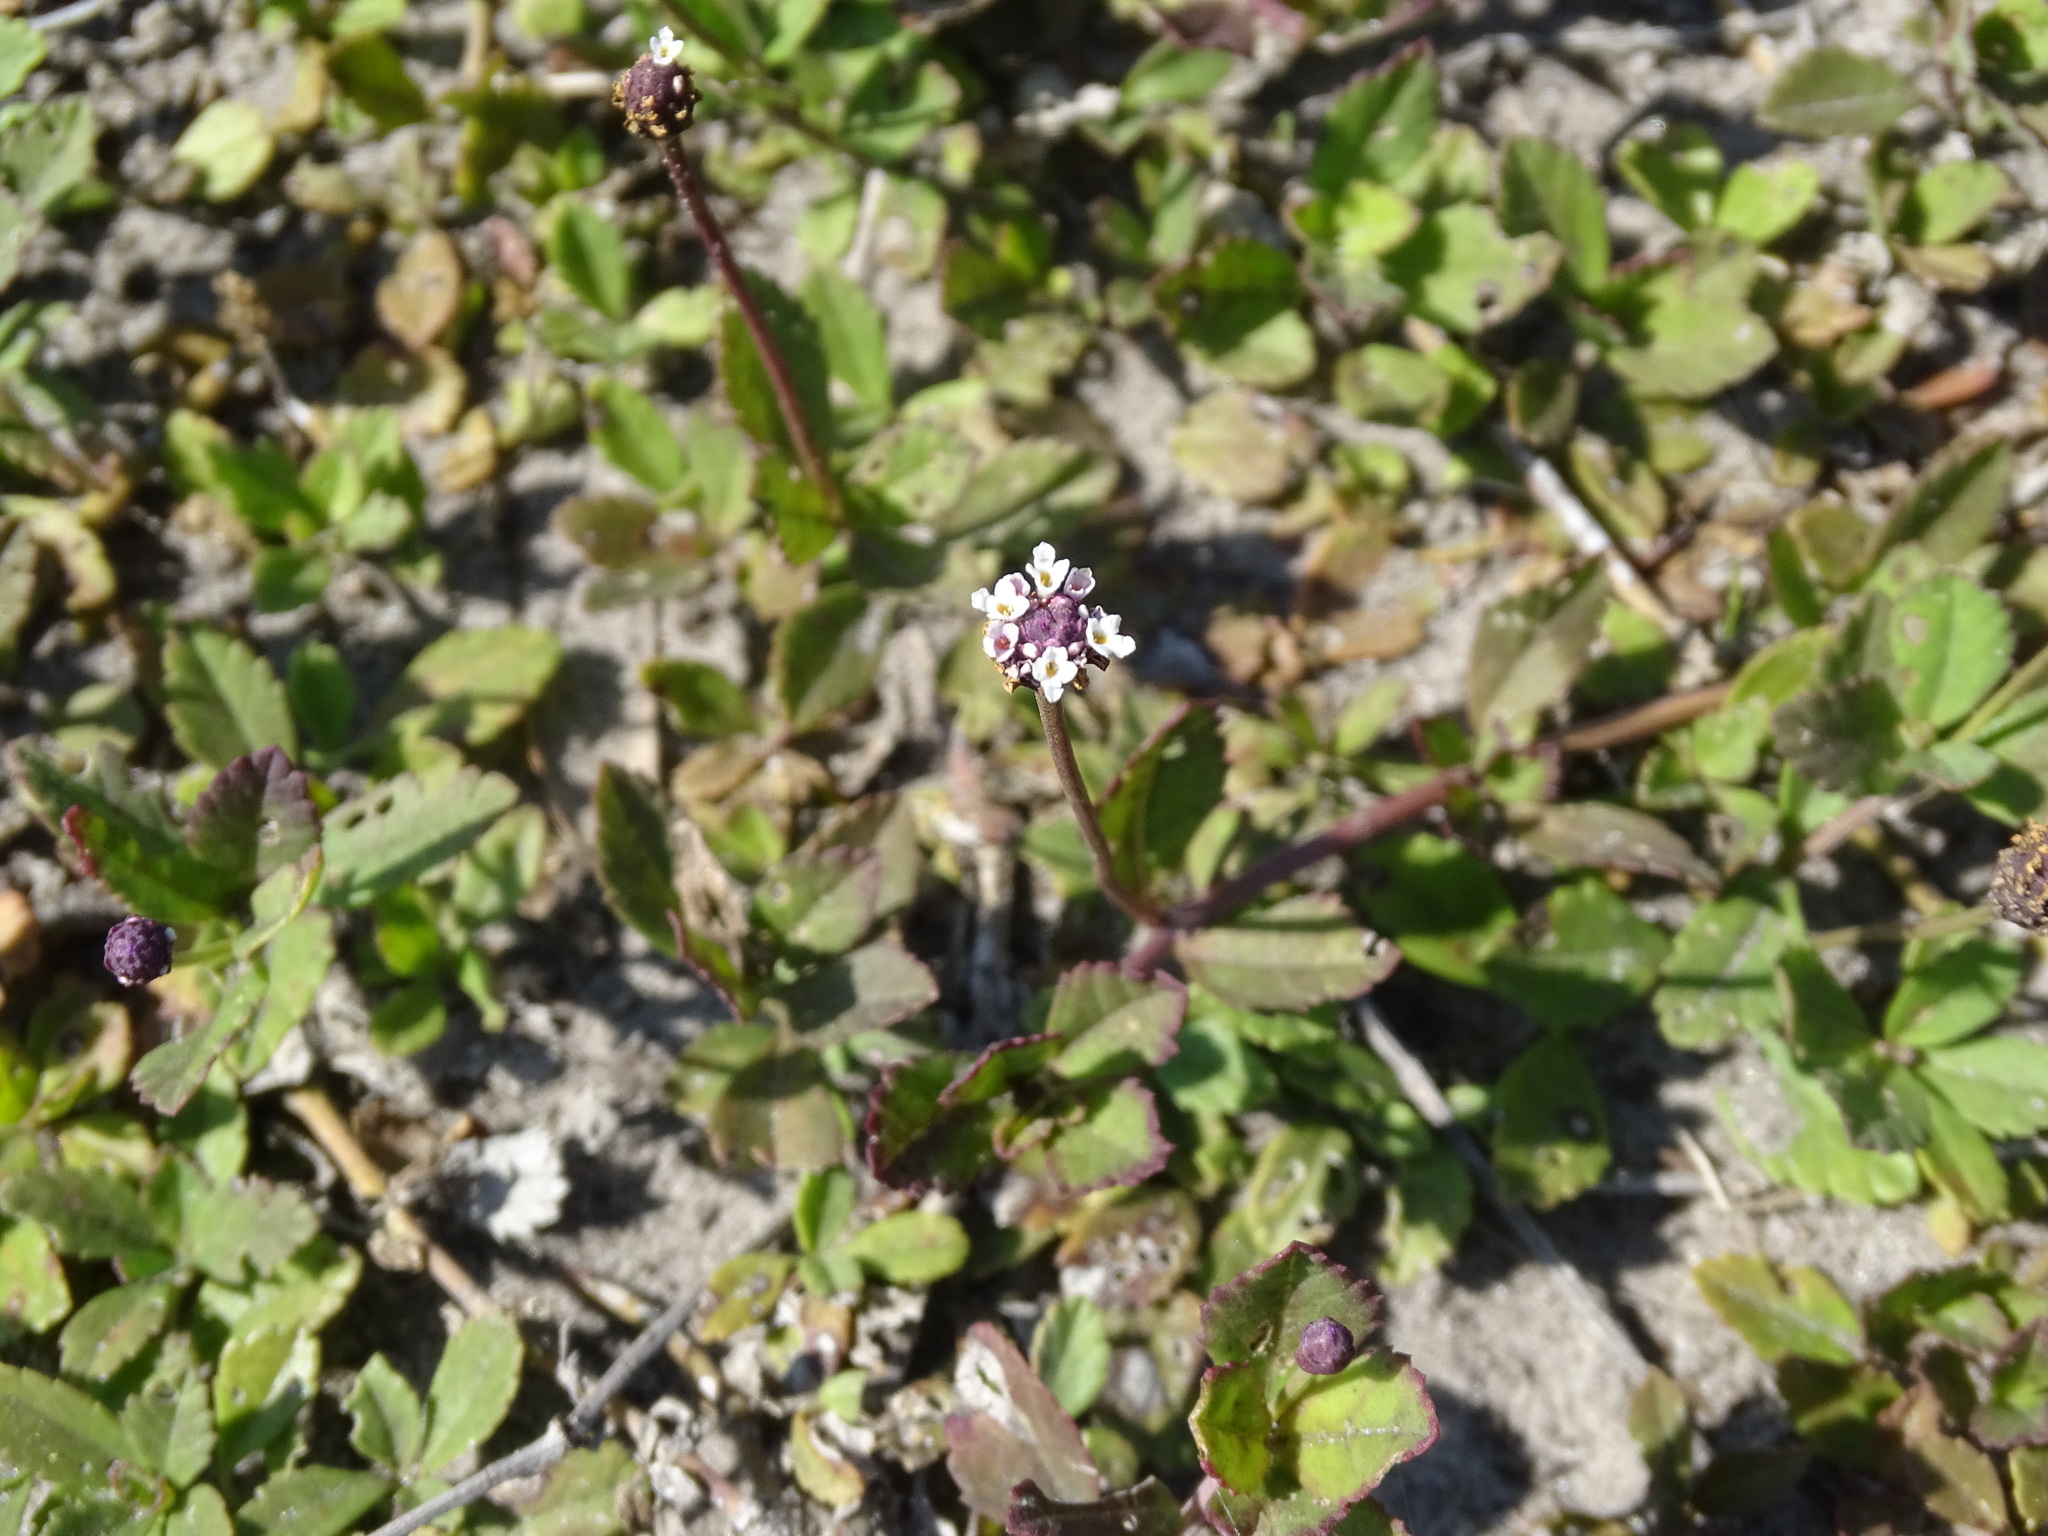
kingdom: Plantae
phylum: Tracheophyta
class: Magnoliopsida
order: Lamiales
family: Verbenaceae
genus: Phyla
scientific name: Phyla nodiflora
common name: Frogfruit
